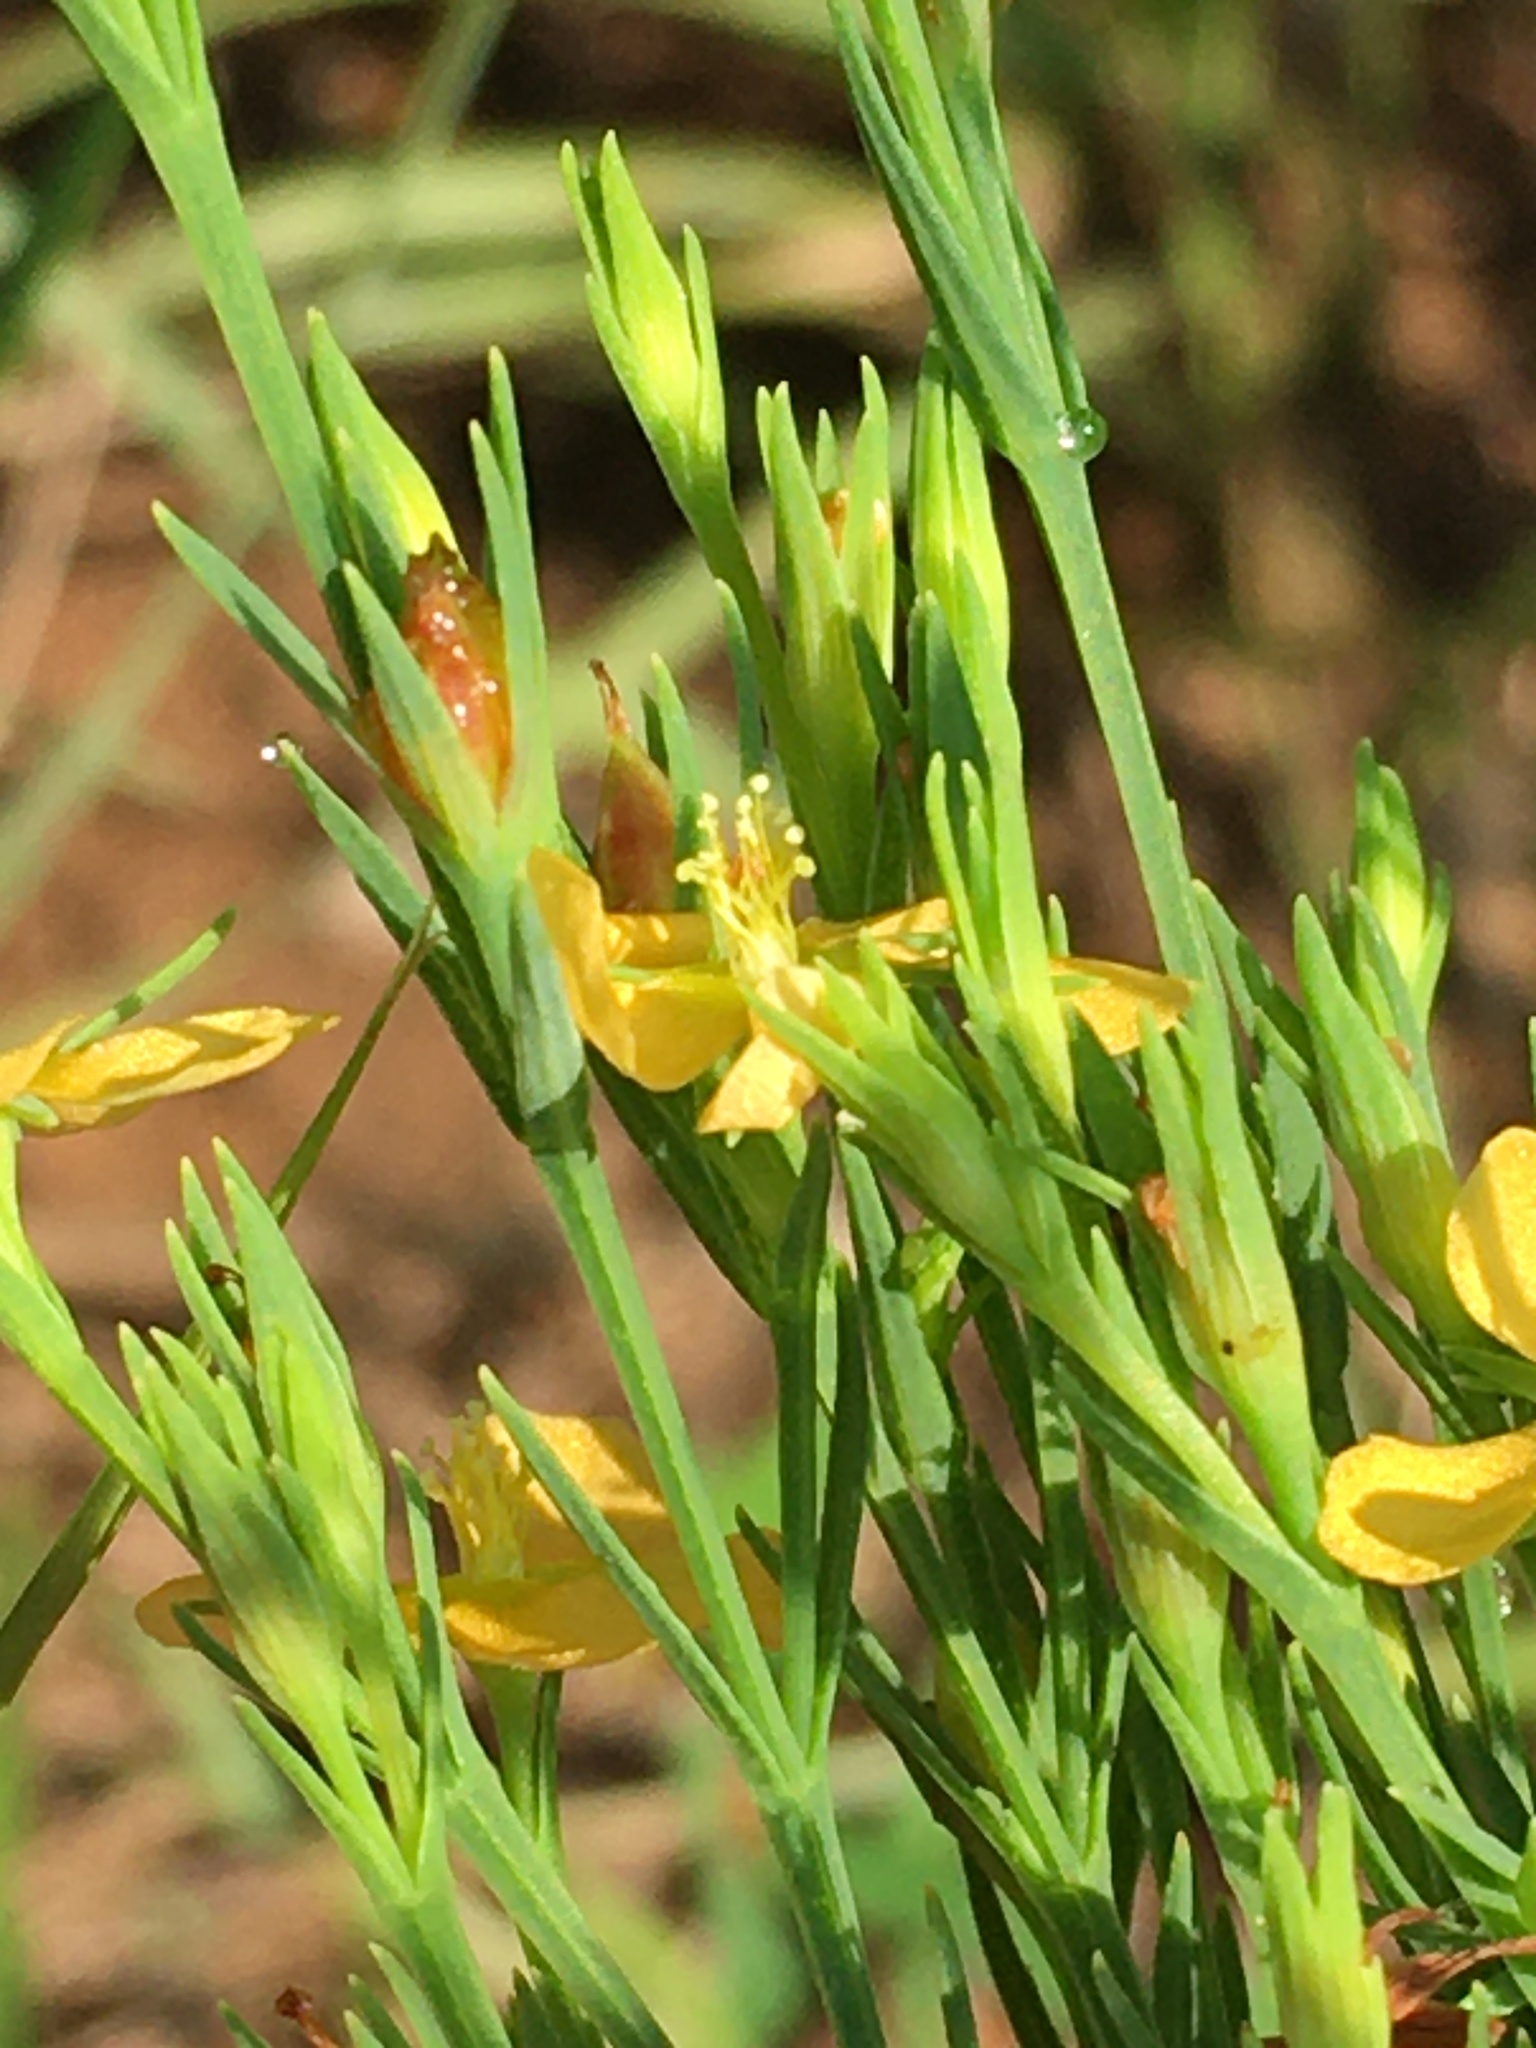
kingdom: Plantae
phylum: Tracheophyta
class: Magnoliopsida
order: Malpighiales
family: Hypericaceae
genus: Hypericum
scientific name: Hypericum drummondii
